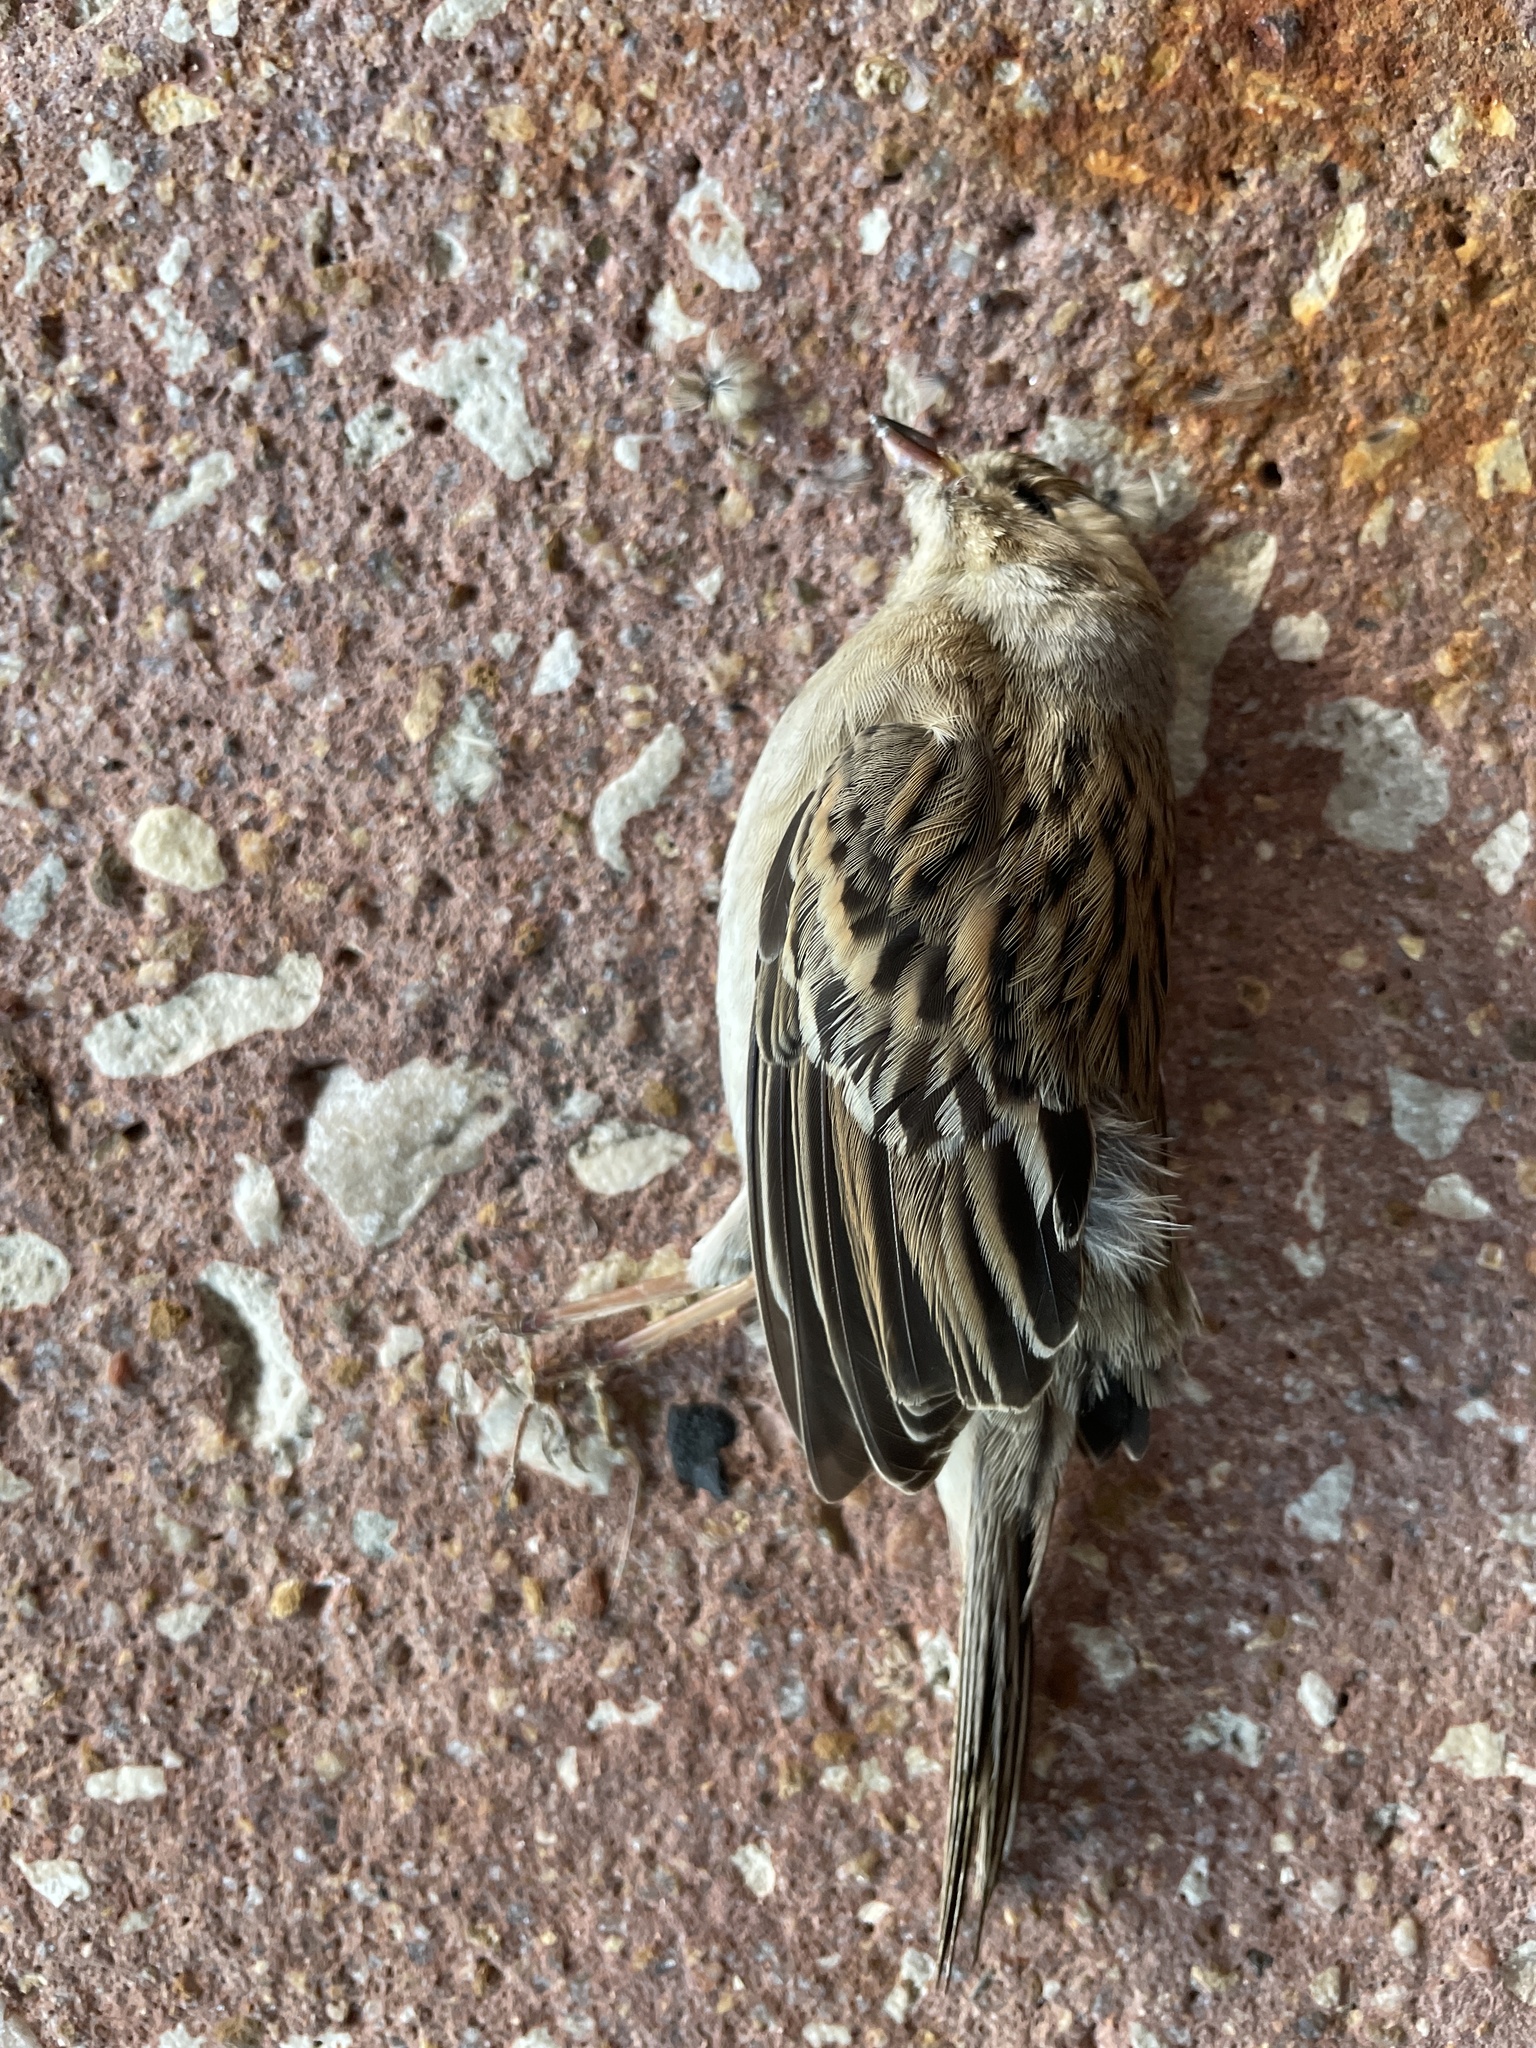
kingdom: Animalia
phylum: Chordata
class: Aves
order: Passeriformes
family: Passeridae
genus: Passer
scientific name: Passer domesticus
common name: House sparrow
